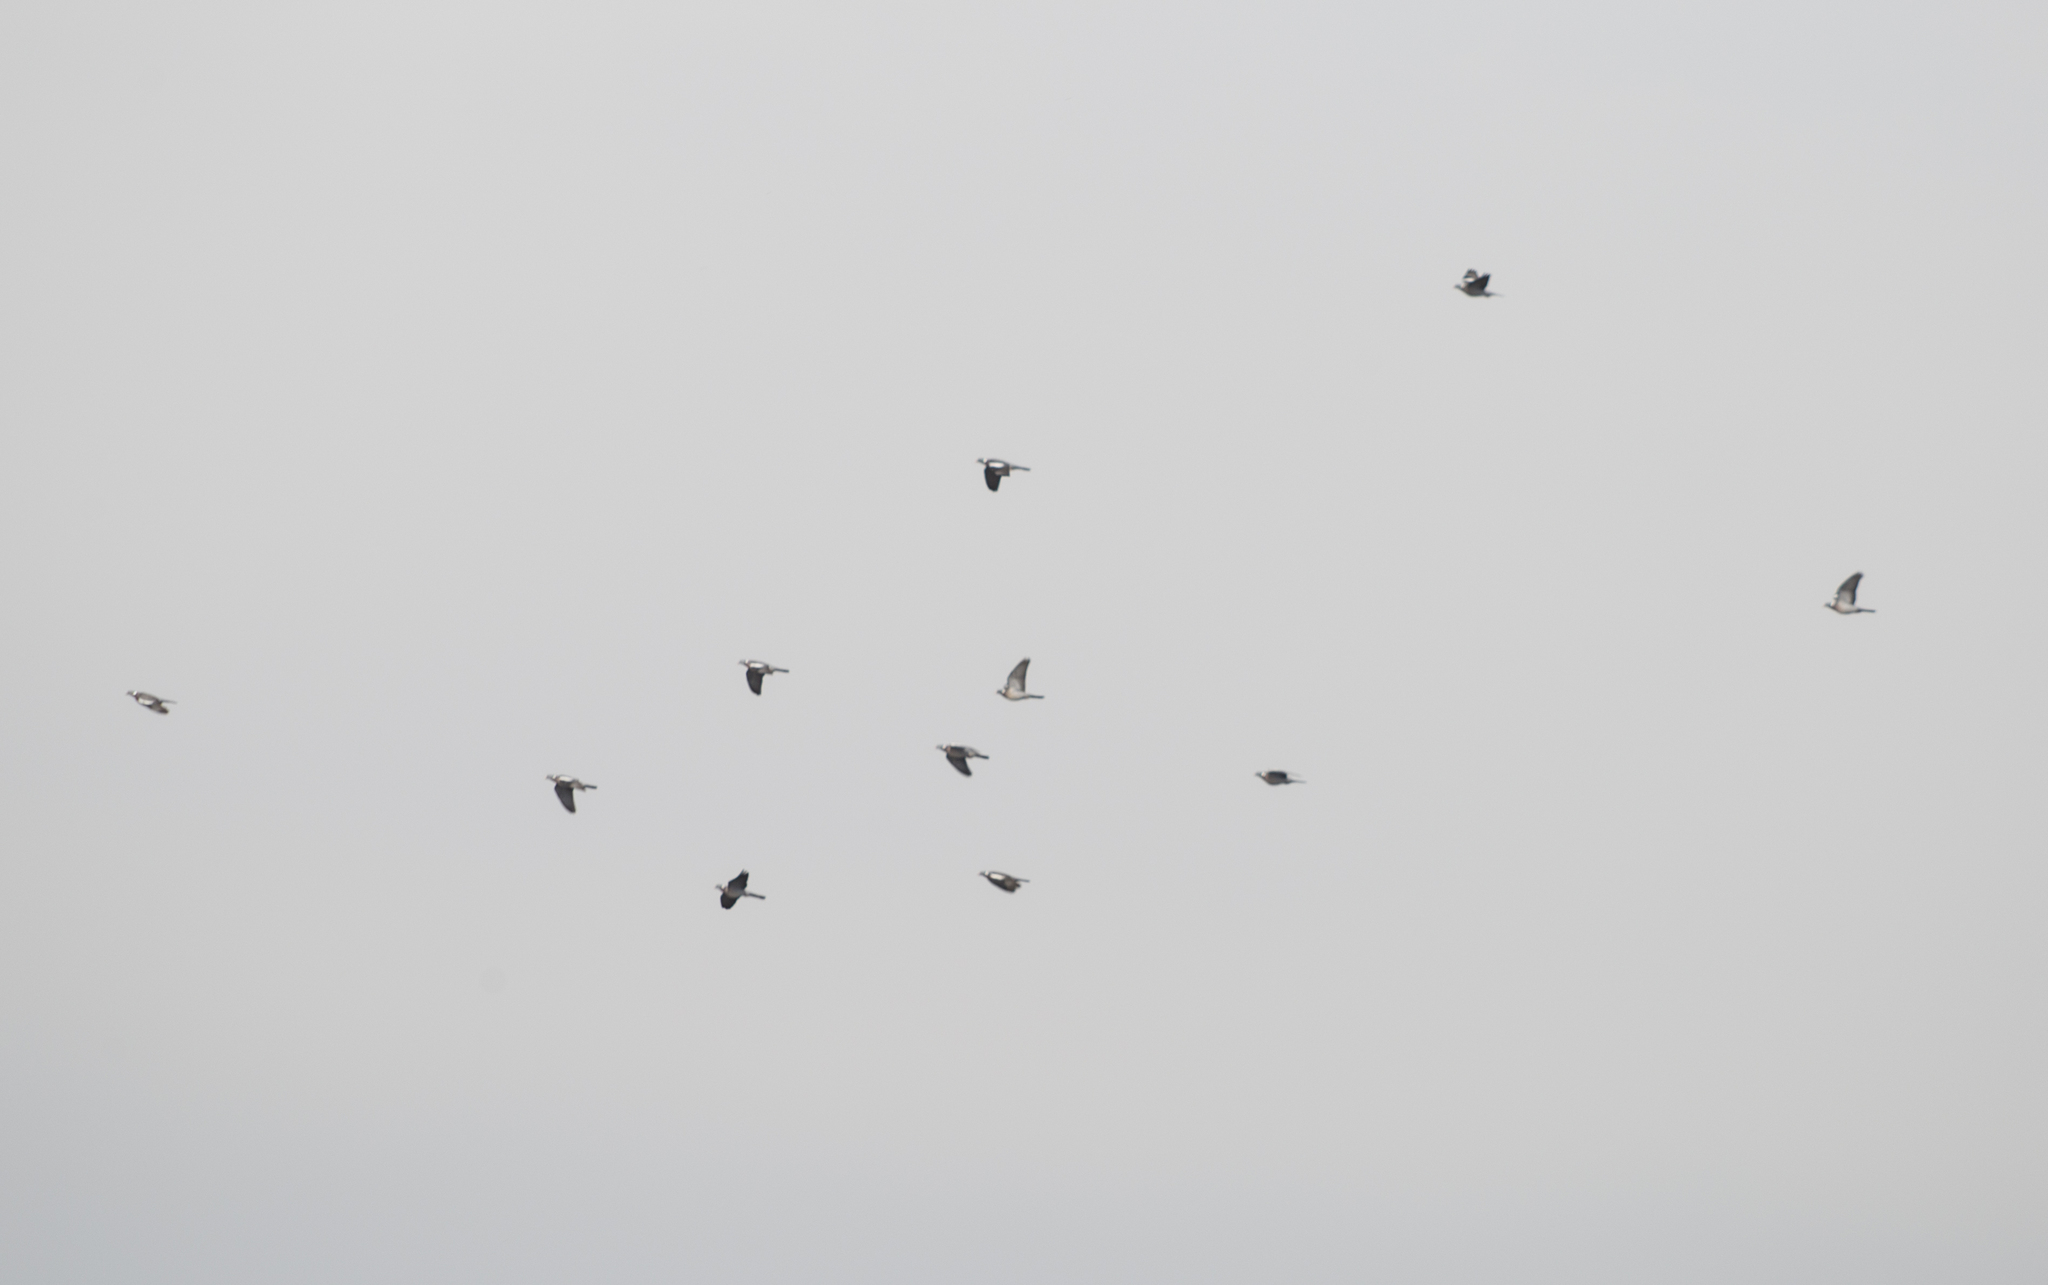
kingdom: Animalia
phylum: Chordata
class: Aves
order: Columbiformes
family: Columbidae
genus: Columba
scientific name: Columba palumbus
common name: Common wood pigeon
